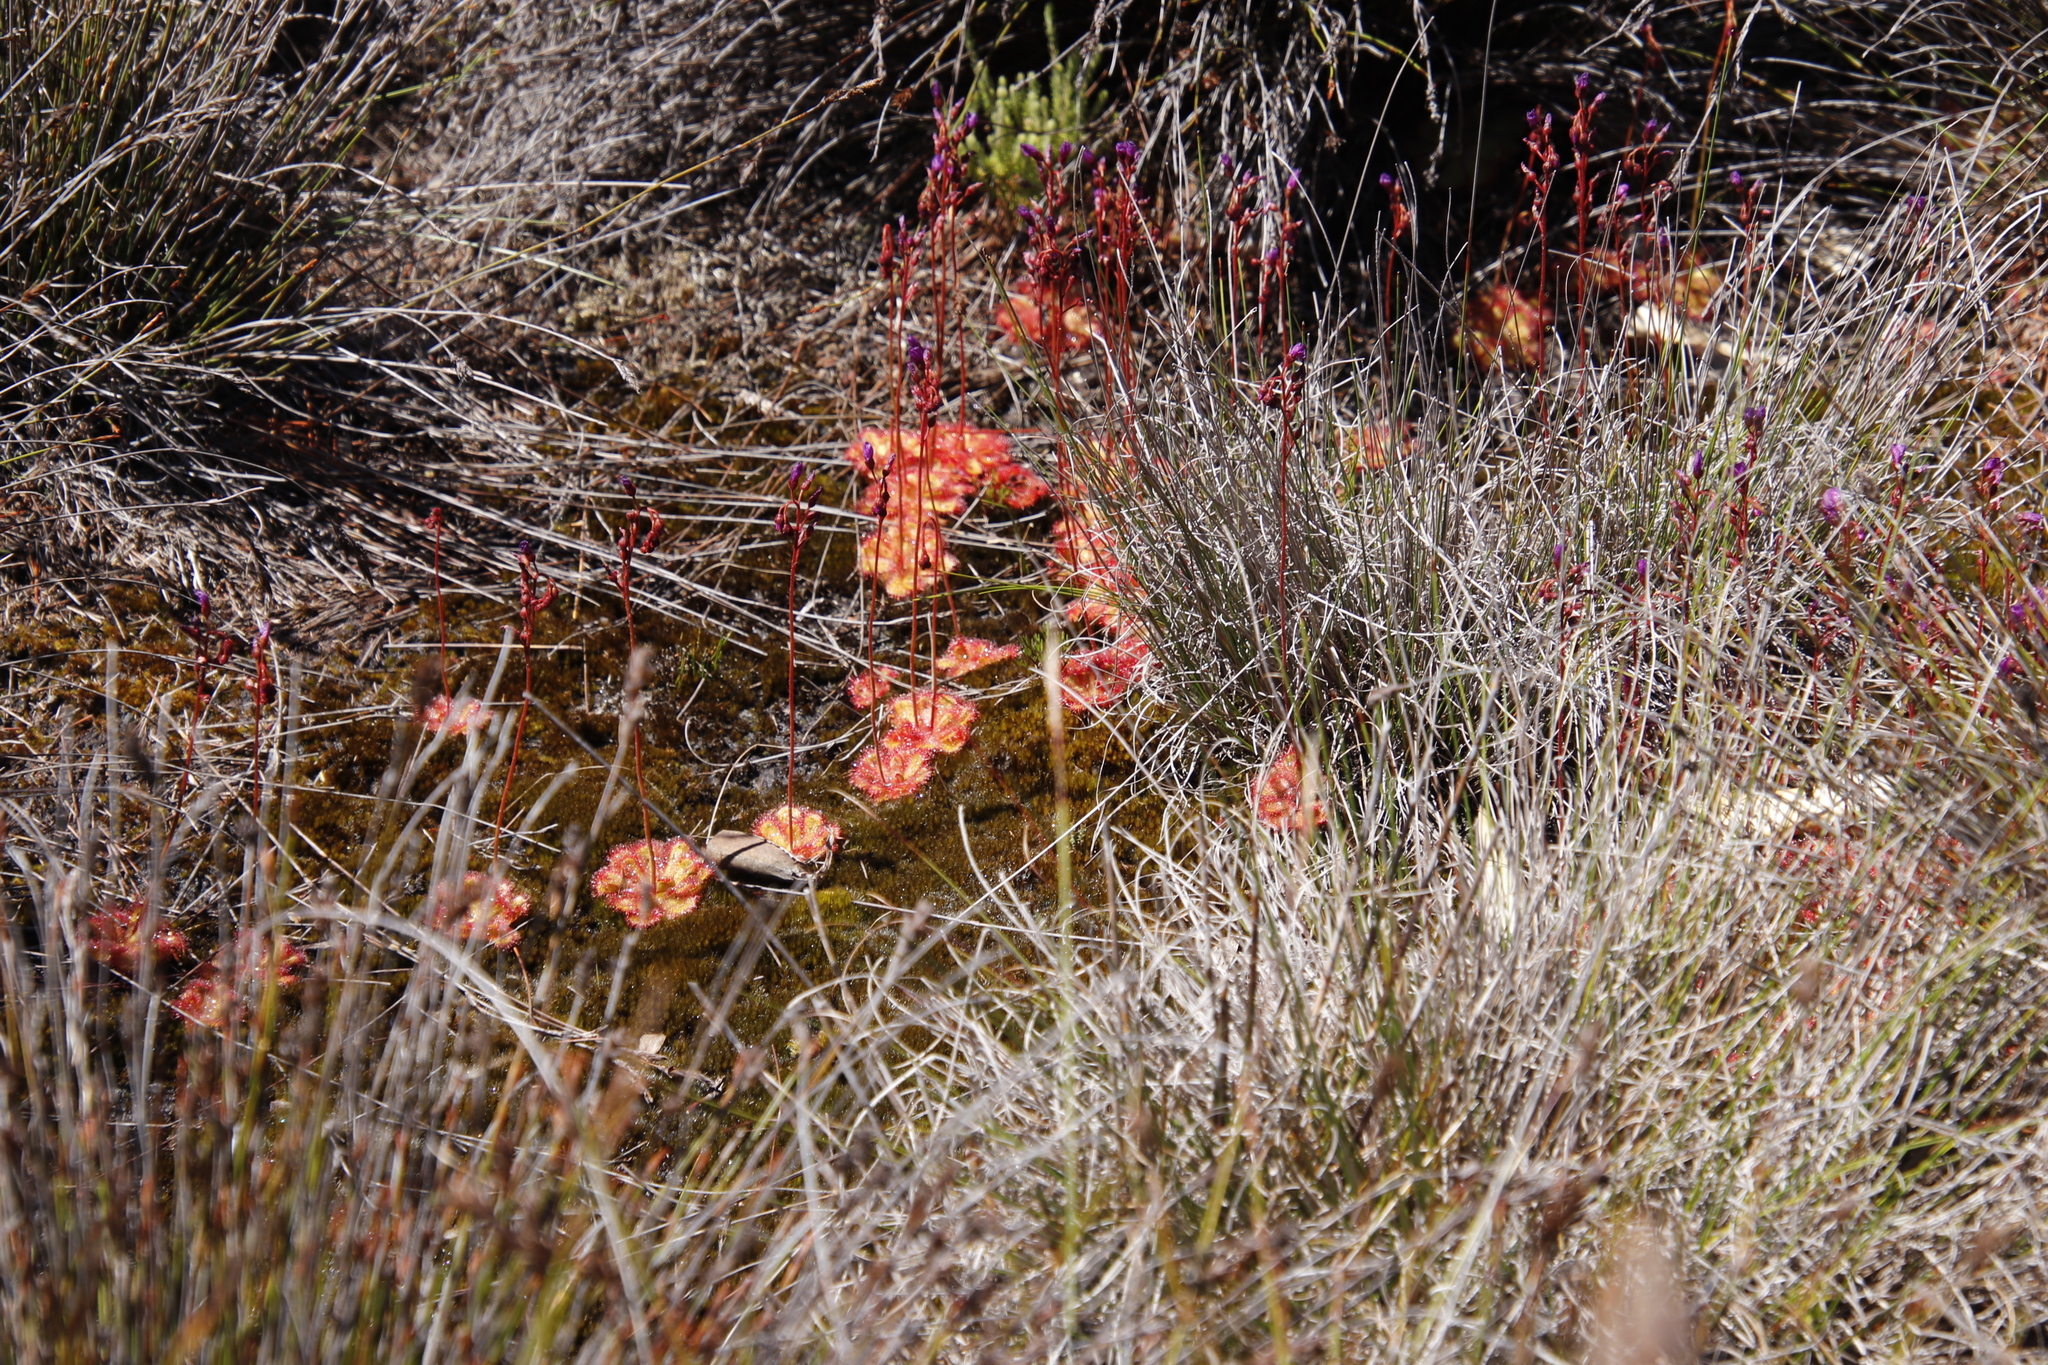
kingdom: Plantae
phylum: Tracheophyta
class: Magnoliopsida
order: Caryophyllales
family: Droseraceae
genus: Drosera
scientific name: Drosera cuneifolia
